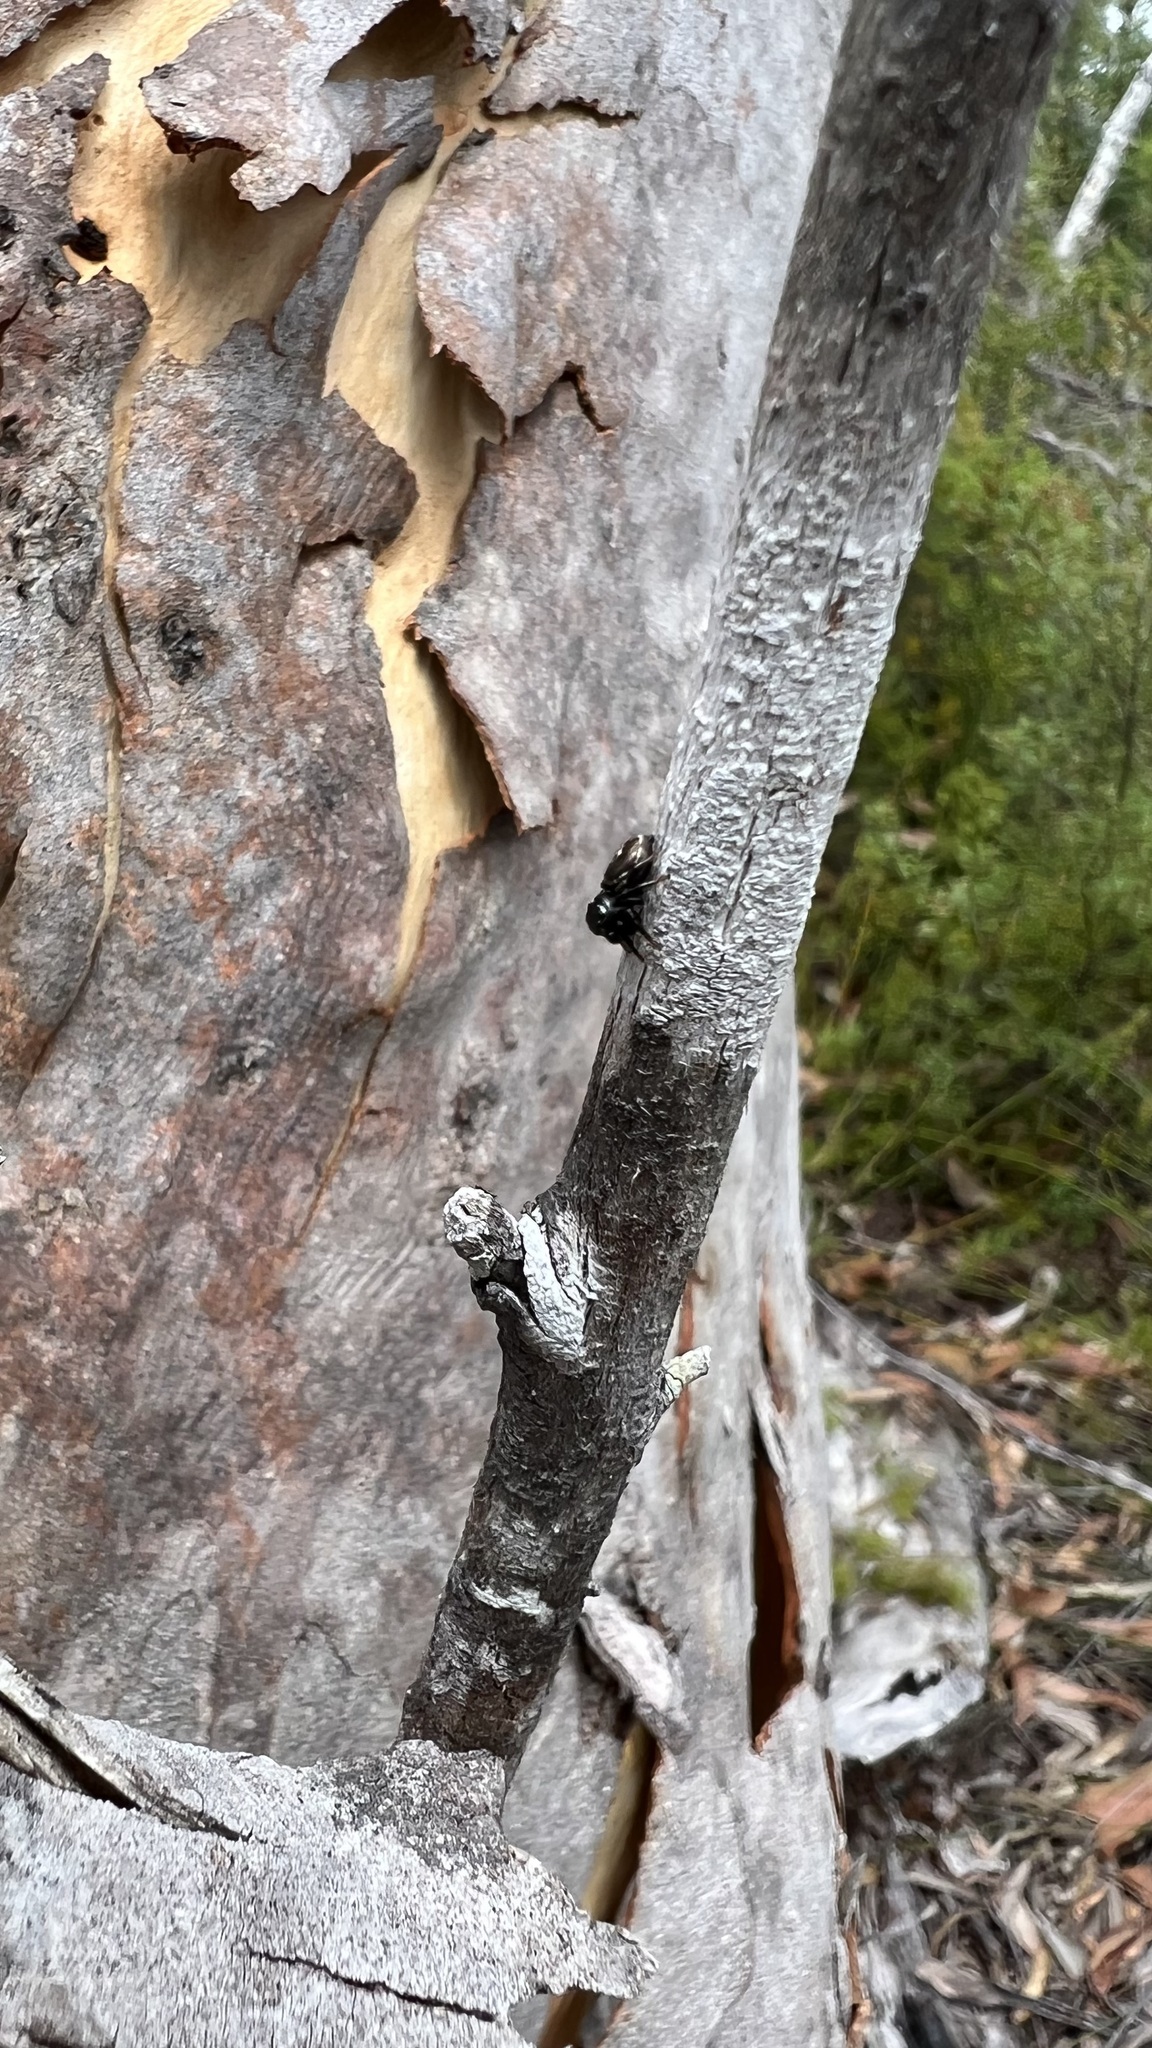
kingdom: Animalia
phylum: Arthropoda
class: Arachnida
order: Araneae
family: Salticidae
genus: Zenodorus
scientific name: Zenodorus orbiculatus
